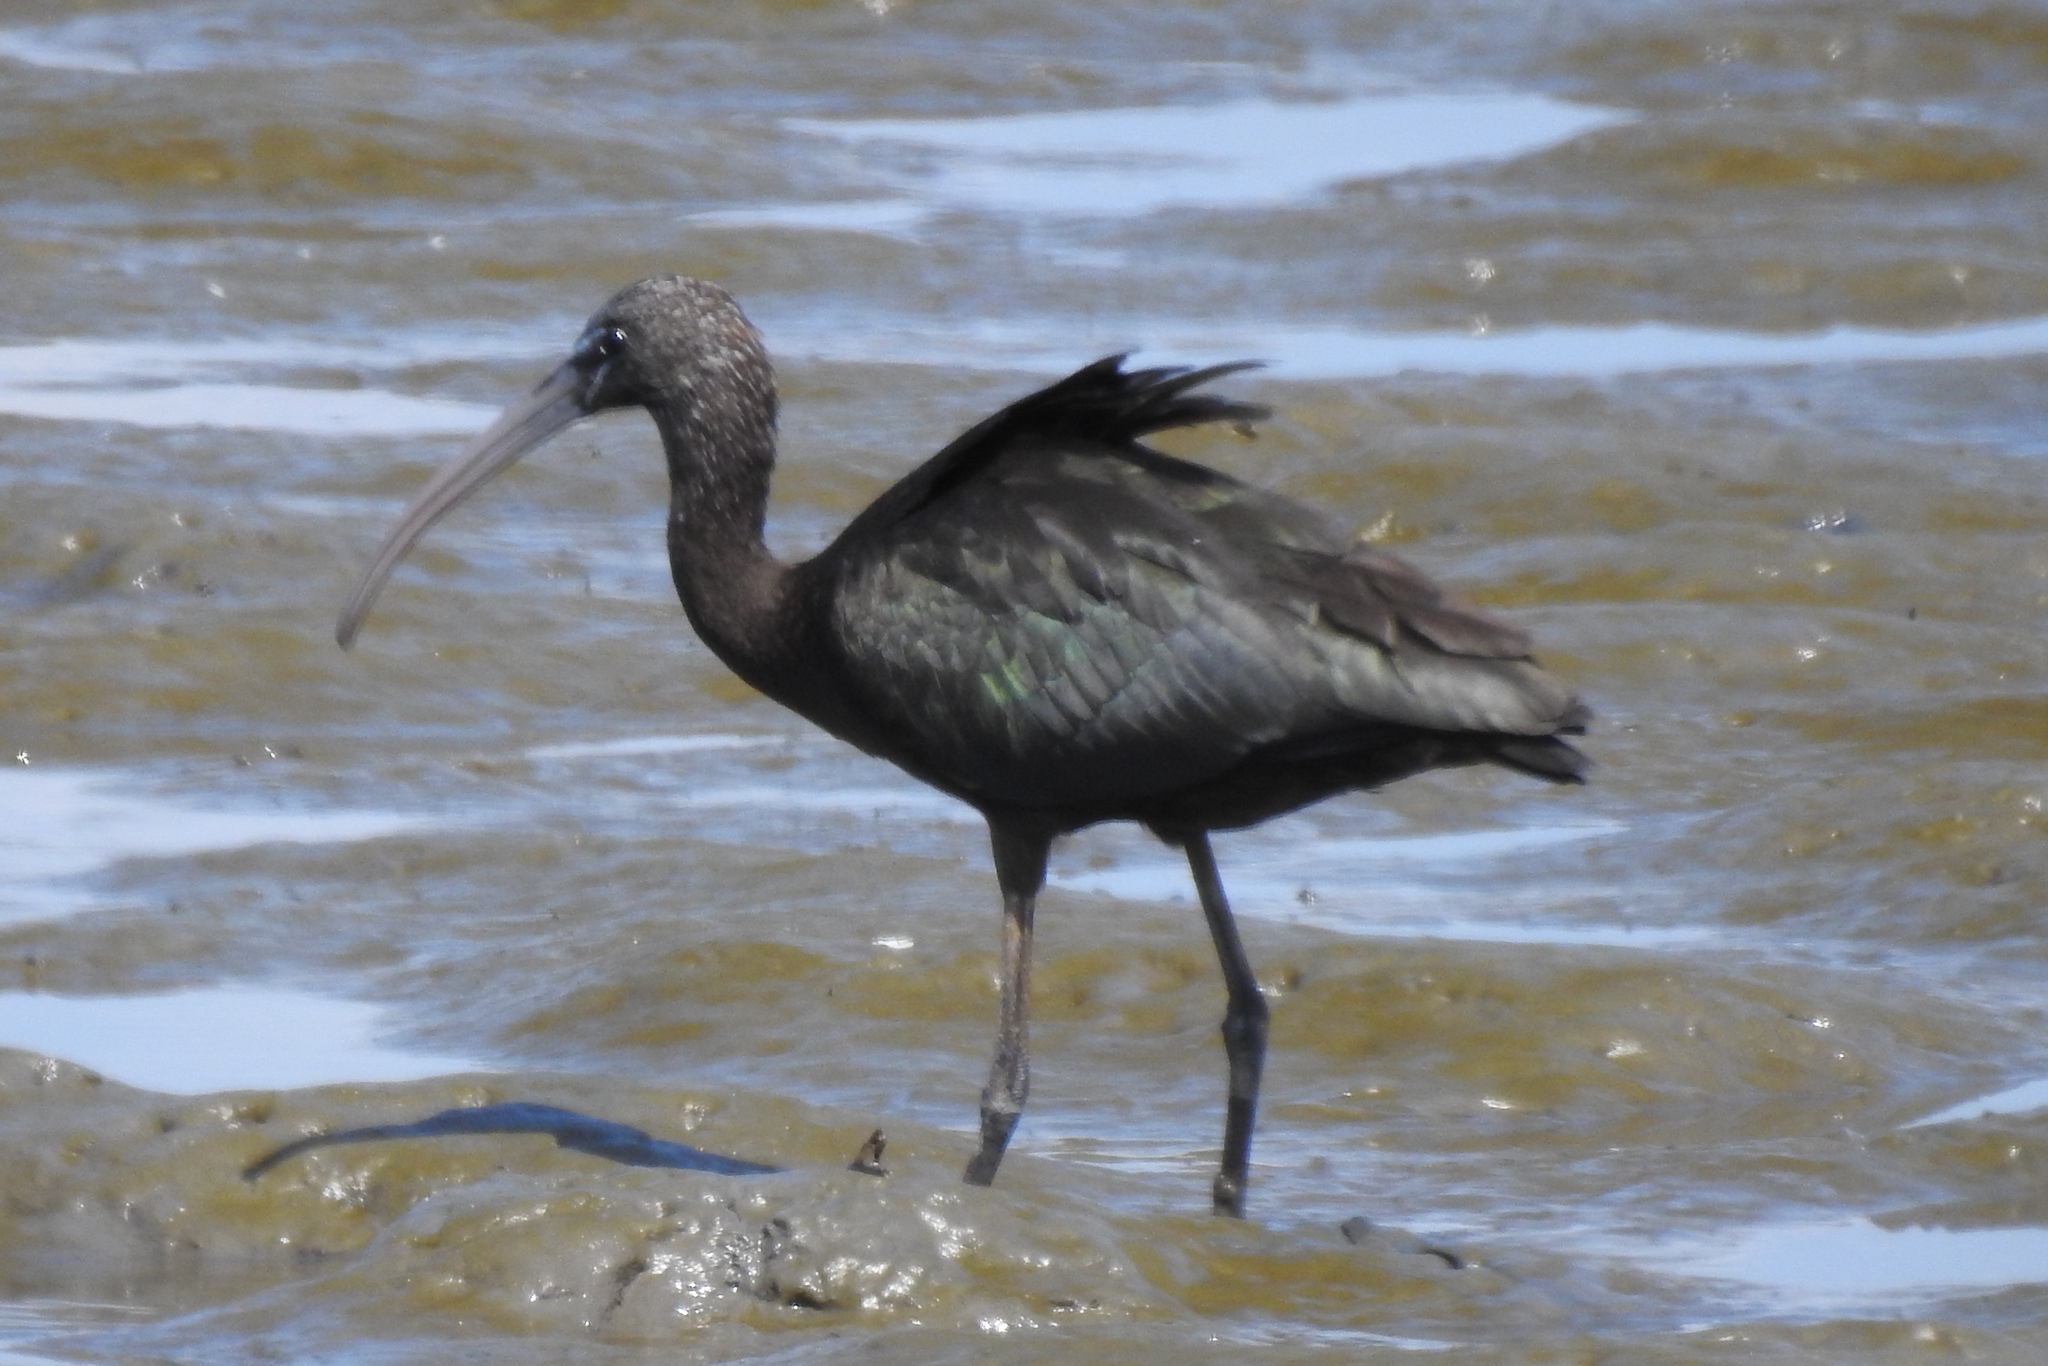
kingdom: Animalia
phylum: Chordata
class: Aves
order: Pelecaniformes
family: Threskiornithidae
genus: Plegadis
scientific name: Plegadis falcinellus
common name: Glossy ibis
